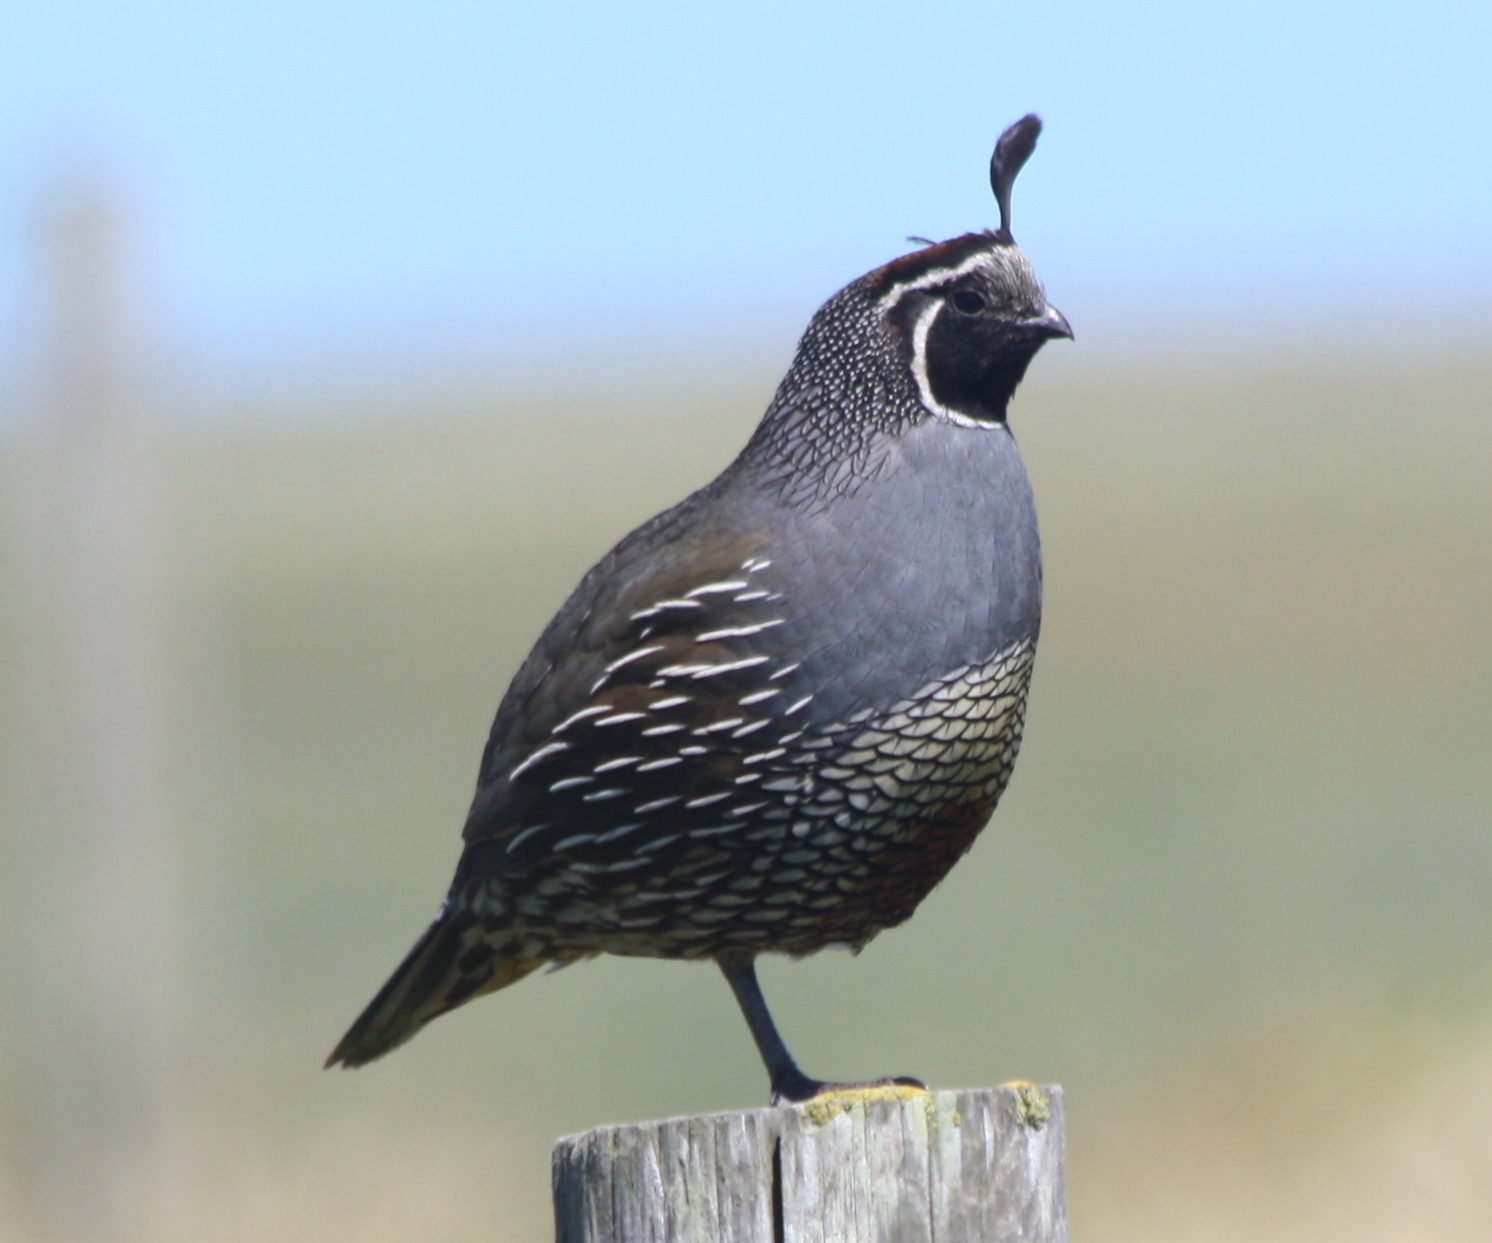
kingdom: Animalia
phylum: Chordata
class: Aves
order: Galliformes
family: Odontophoridae
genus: Callipepla
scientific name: Callipepla californica
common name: California quail
